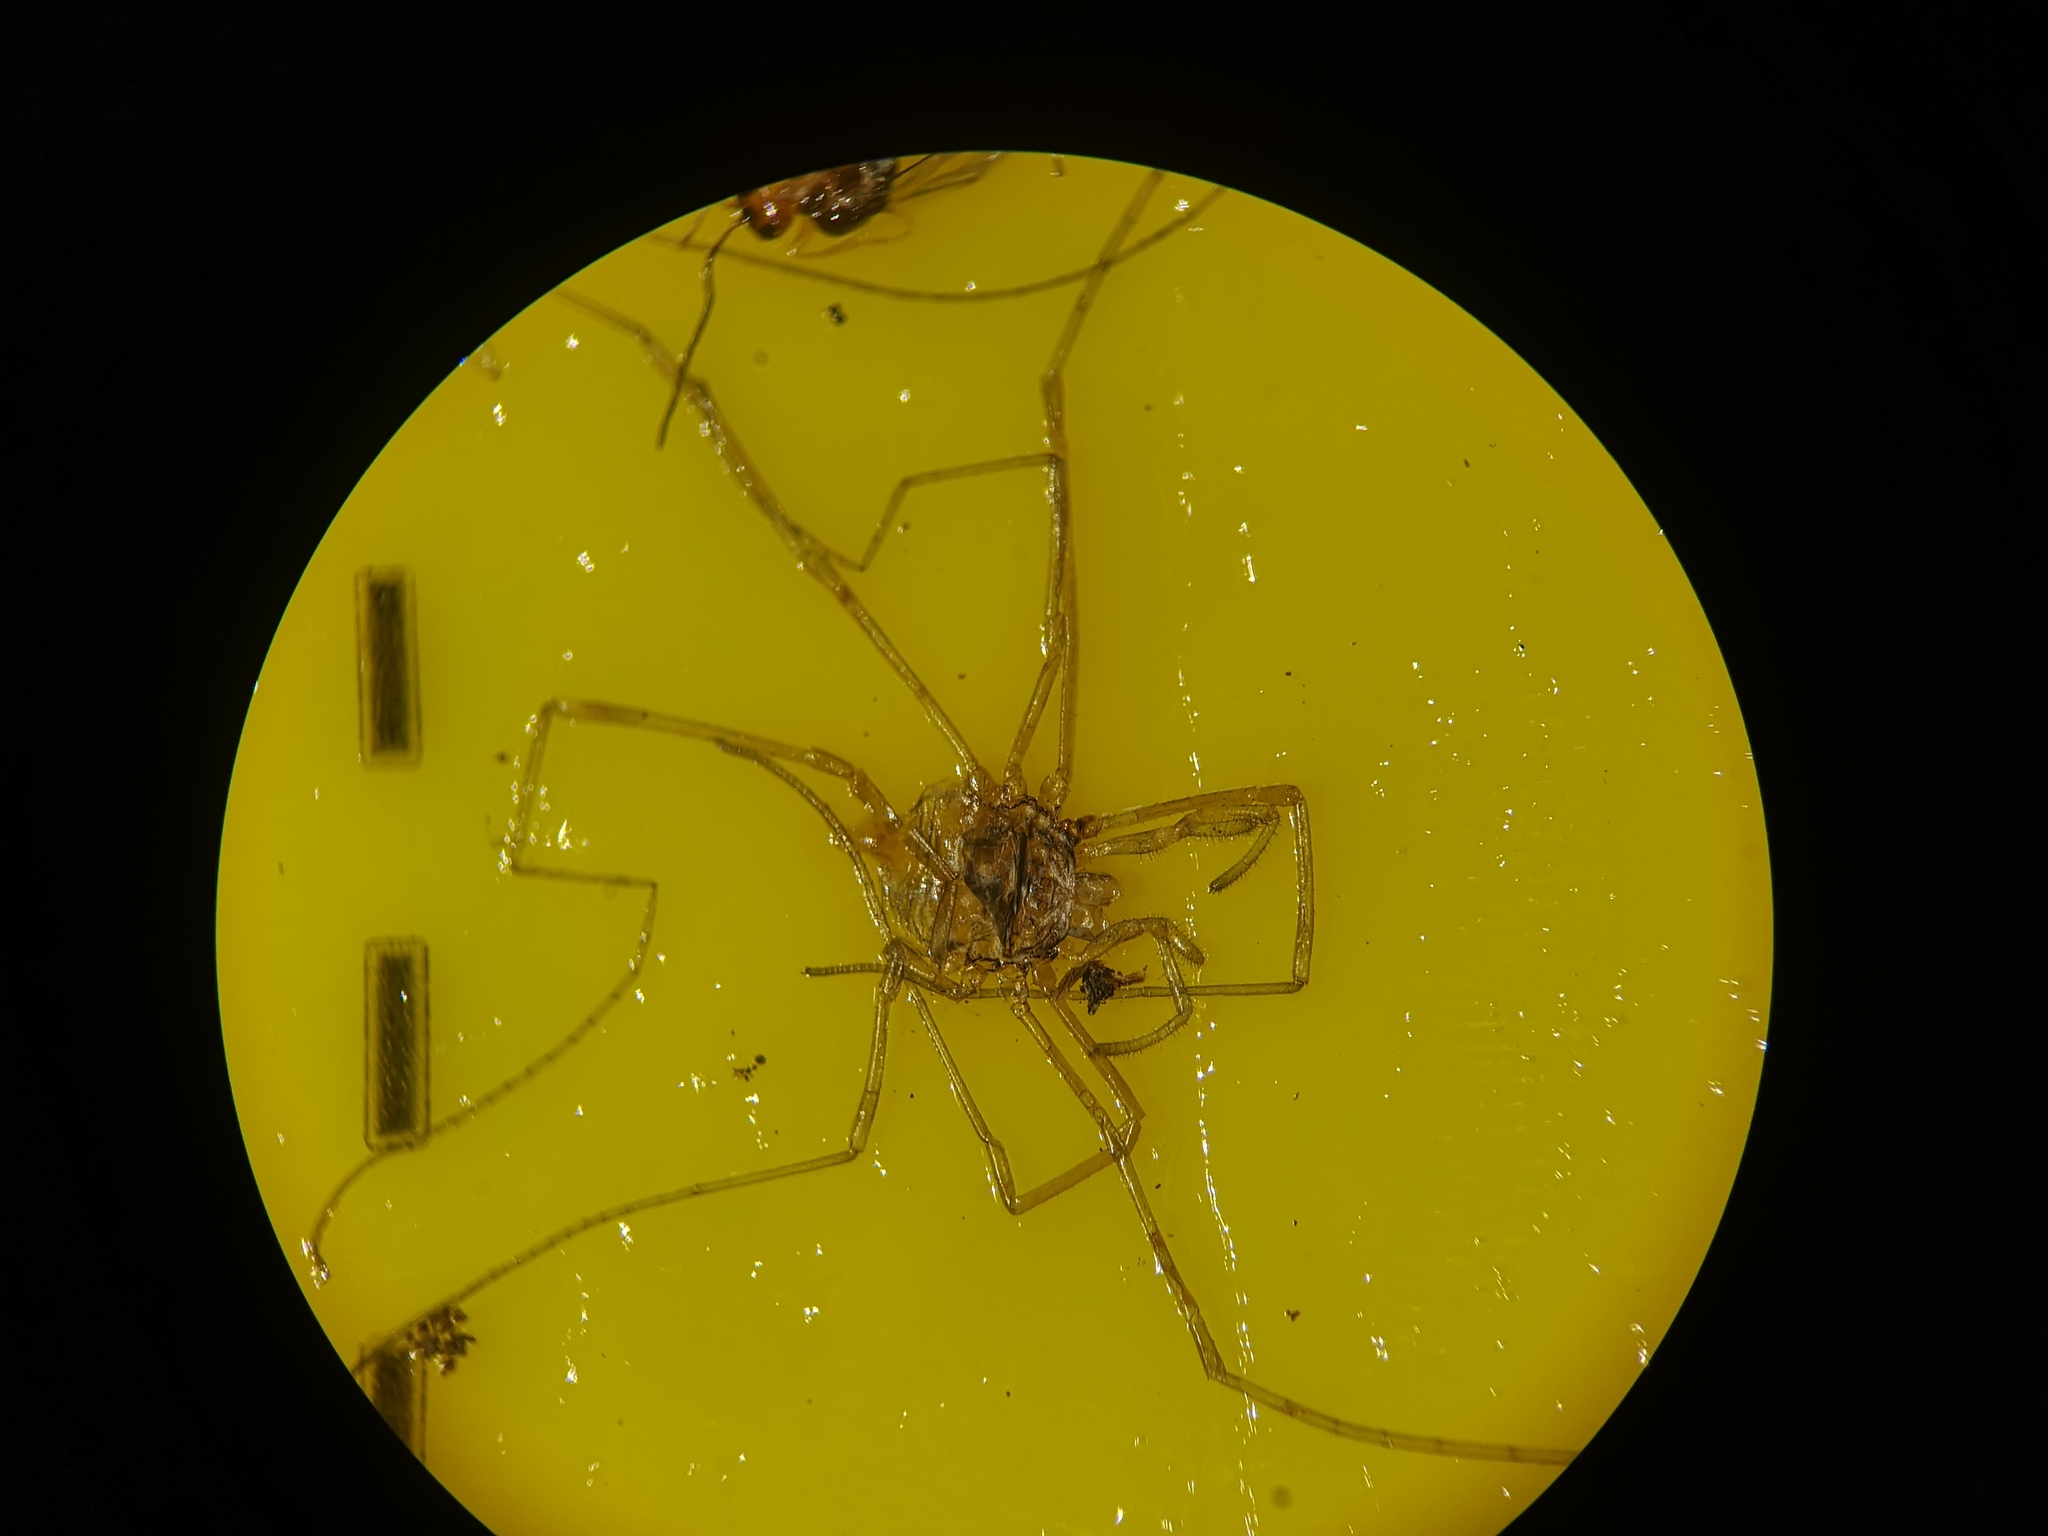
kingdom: Animalia
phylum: Arthropoda
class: Arachnida
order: Opiliones
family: Phalangiidae
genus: Dicranopalpus
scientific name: Dicranopalpus ramosus
